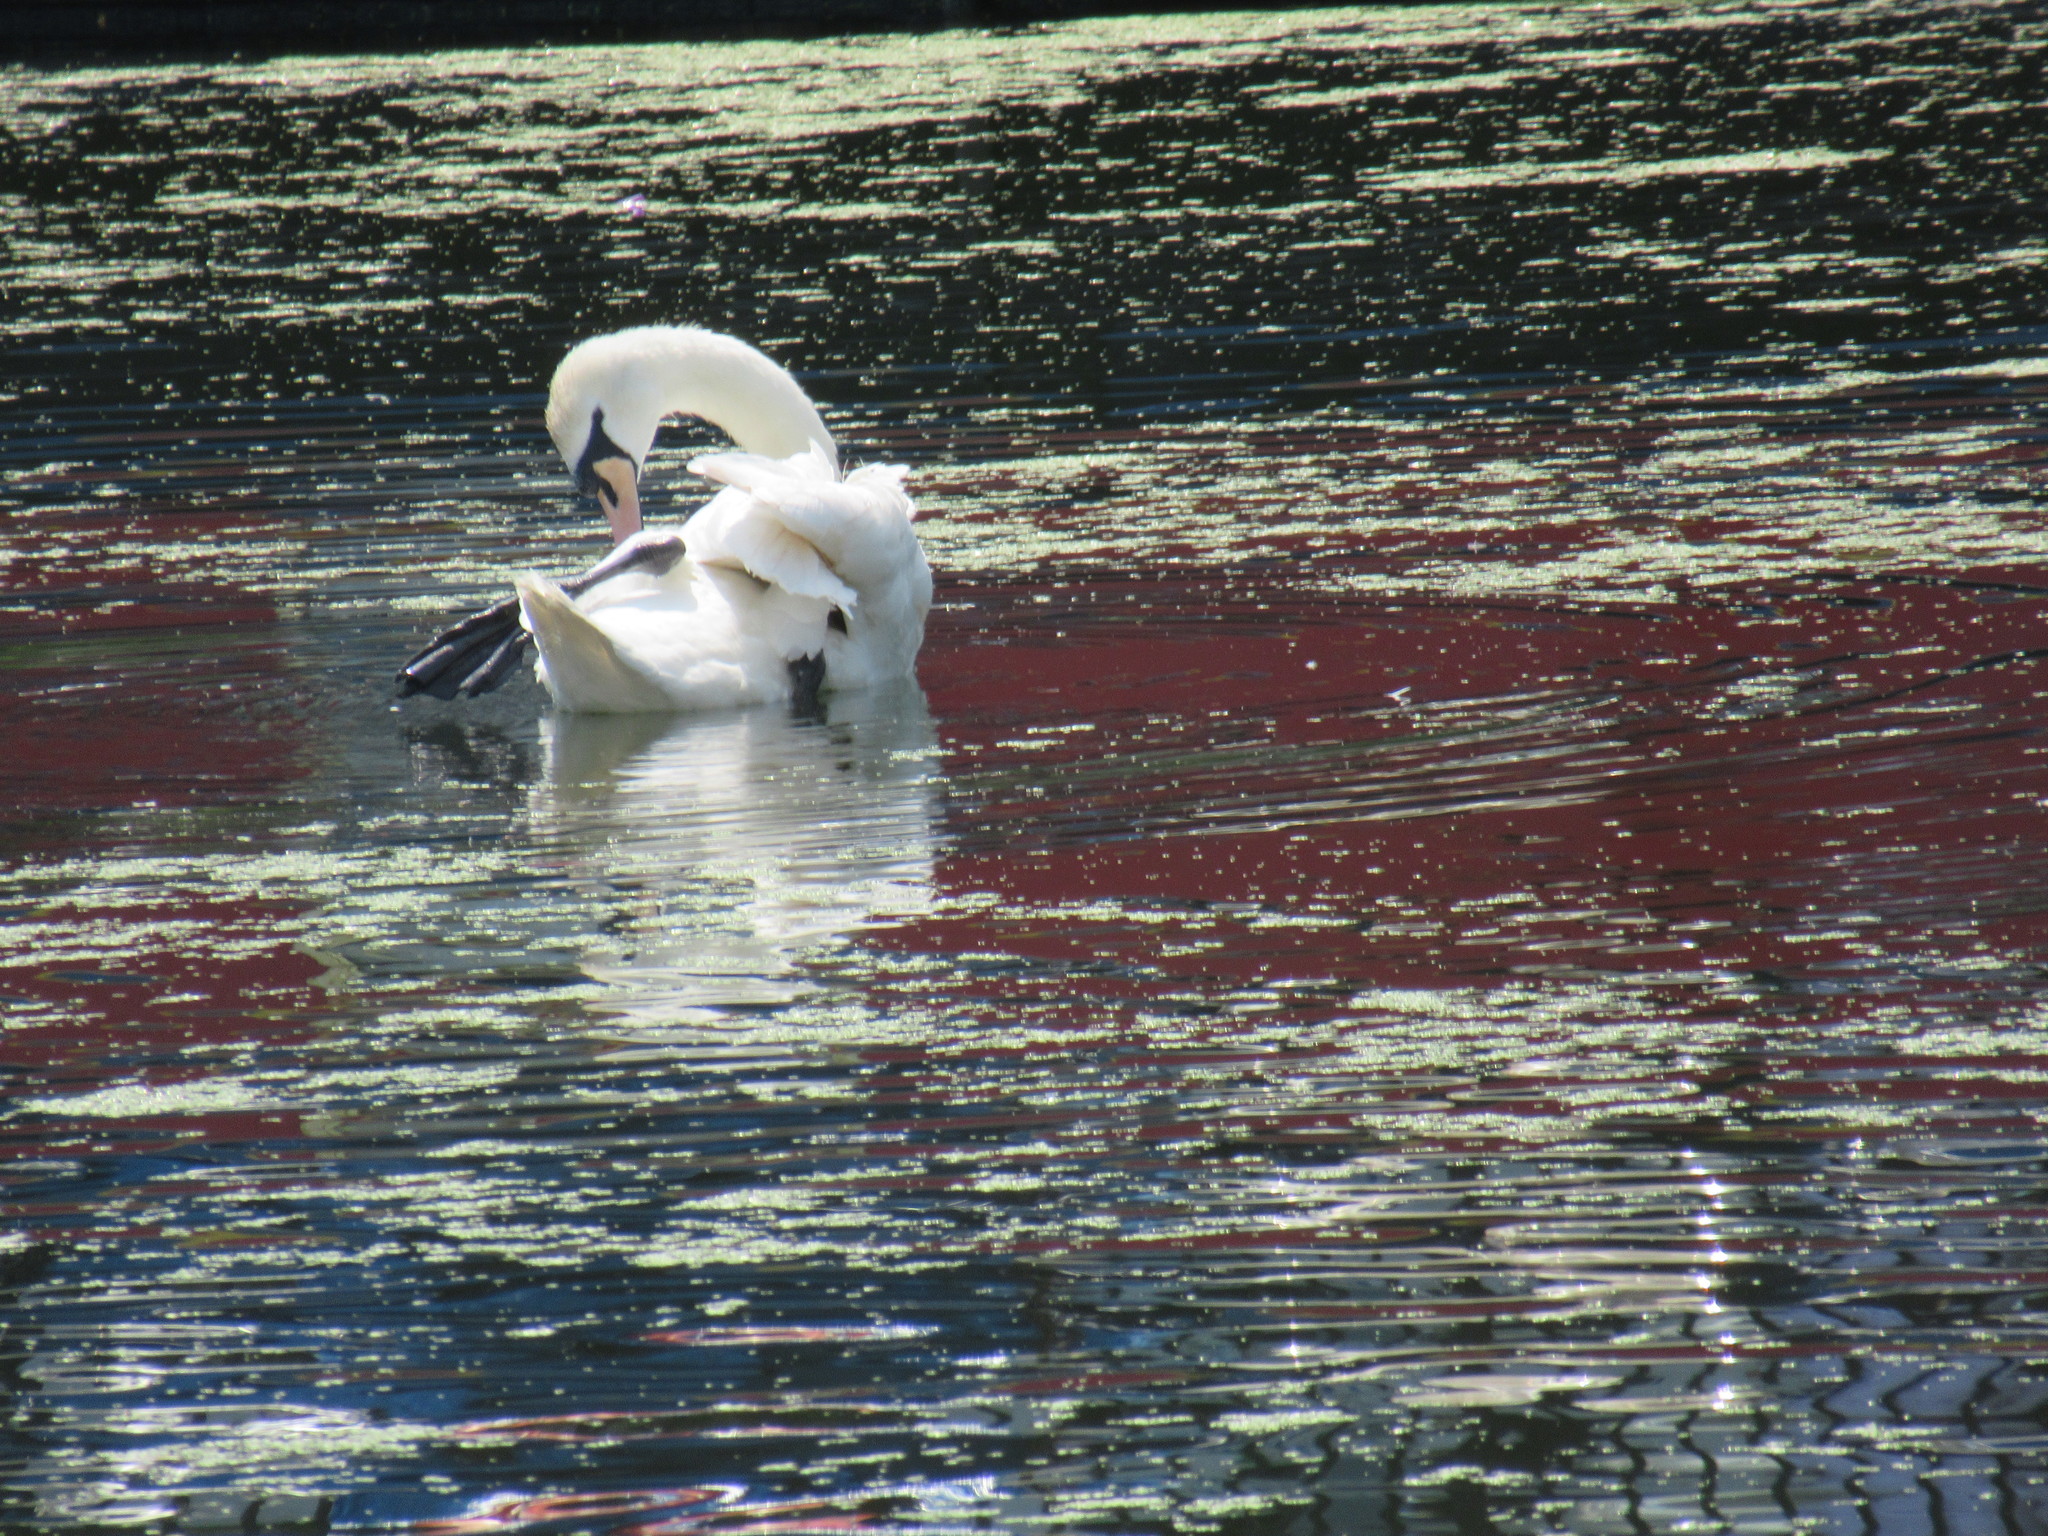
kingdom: Animalia
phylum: Chordata
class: Aves
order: Anseriformes
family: Anatidae
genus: Cygnus
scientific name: Cygnus olor
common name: Mute swan
